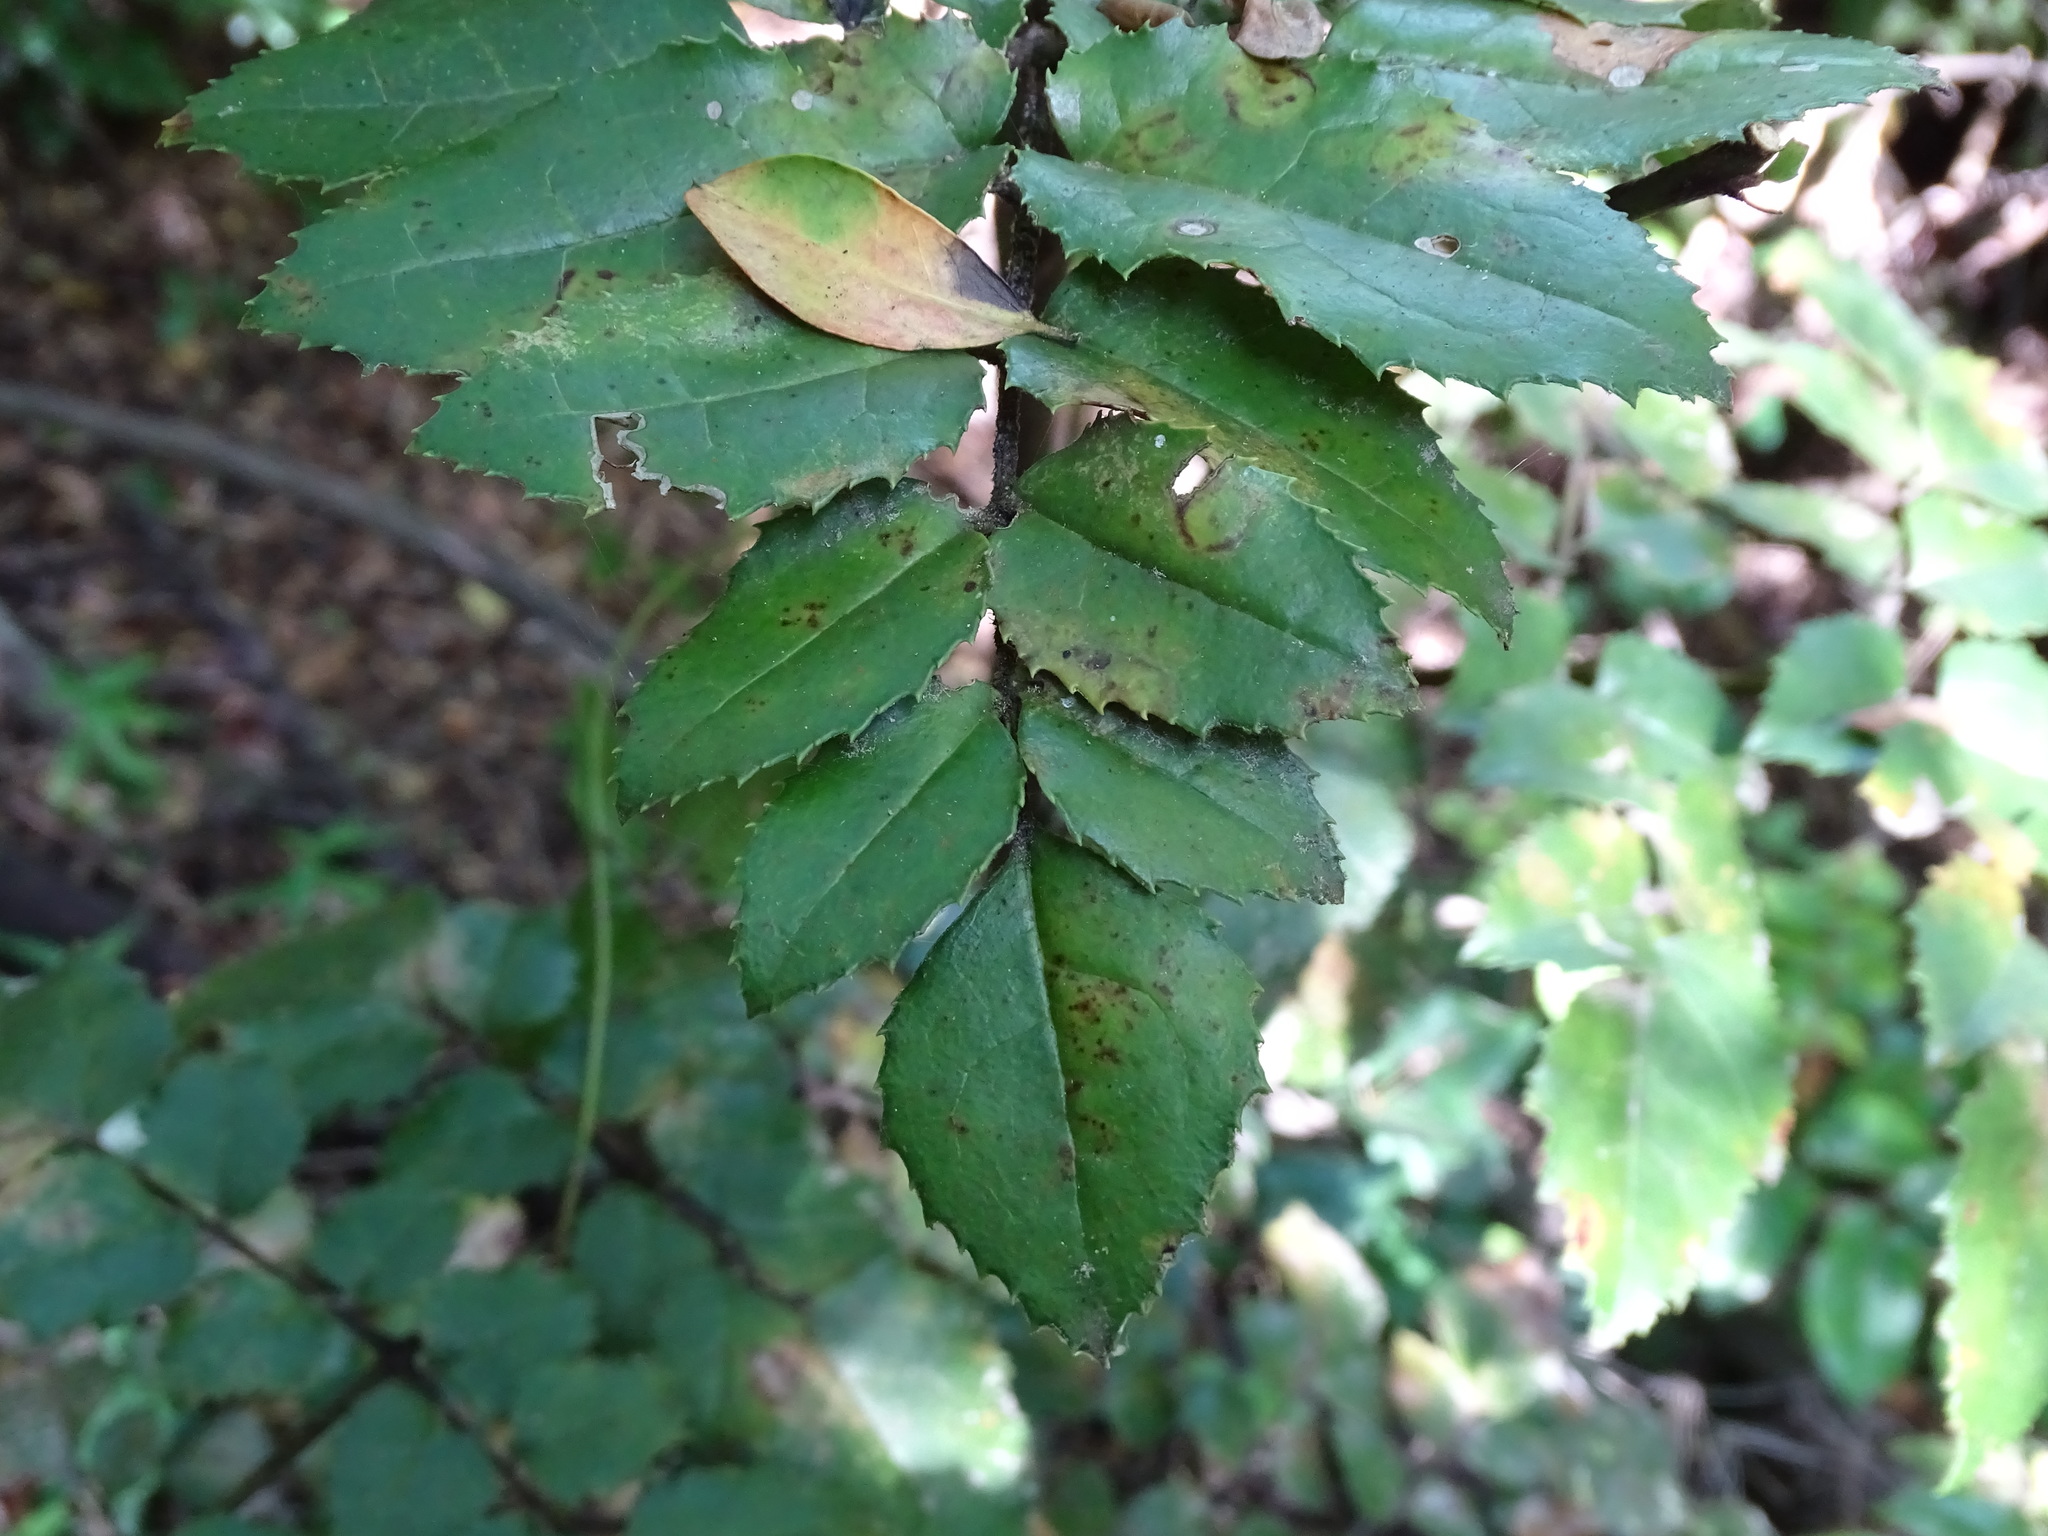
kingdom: Plantae
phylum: Tracheophyta
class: Magnoliopsida
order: Proteales
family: Proteaceae
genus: Gevuina
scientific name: Gevuina avellana
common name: Chilean hazel
